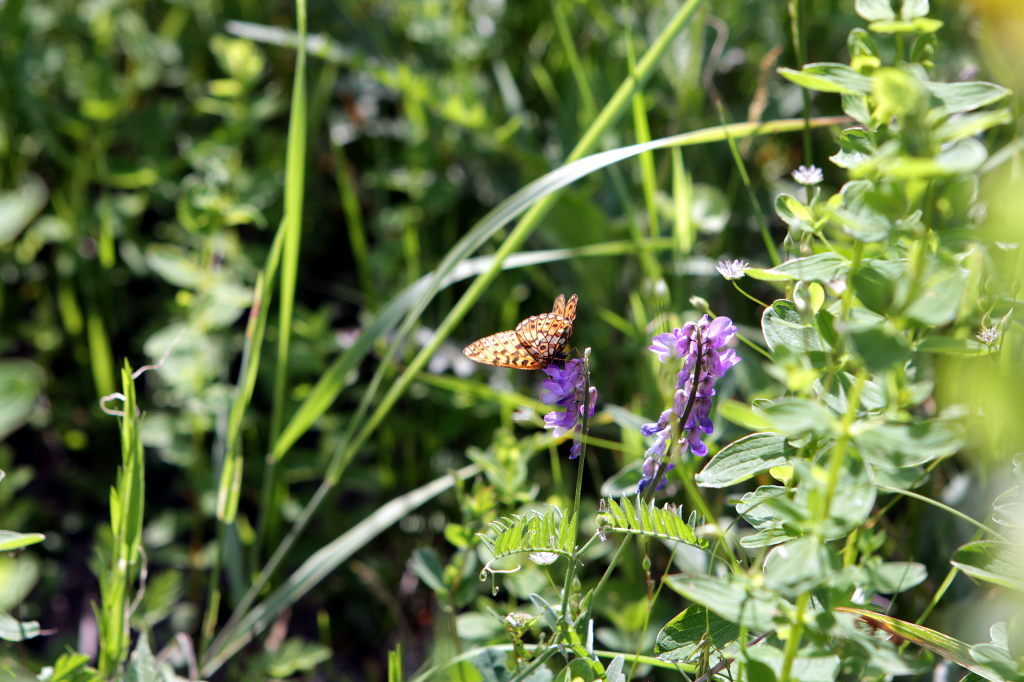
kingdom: Animalia
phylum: Arthropoda
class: Insecta
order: Lepidoptera
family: Nymphalidae
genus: Boloria
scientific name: Boloria selene
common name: Small pearl-bordered fritillary
